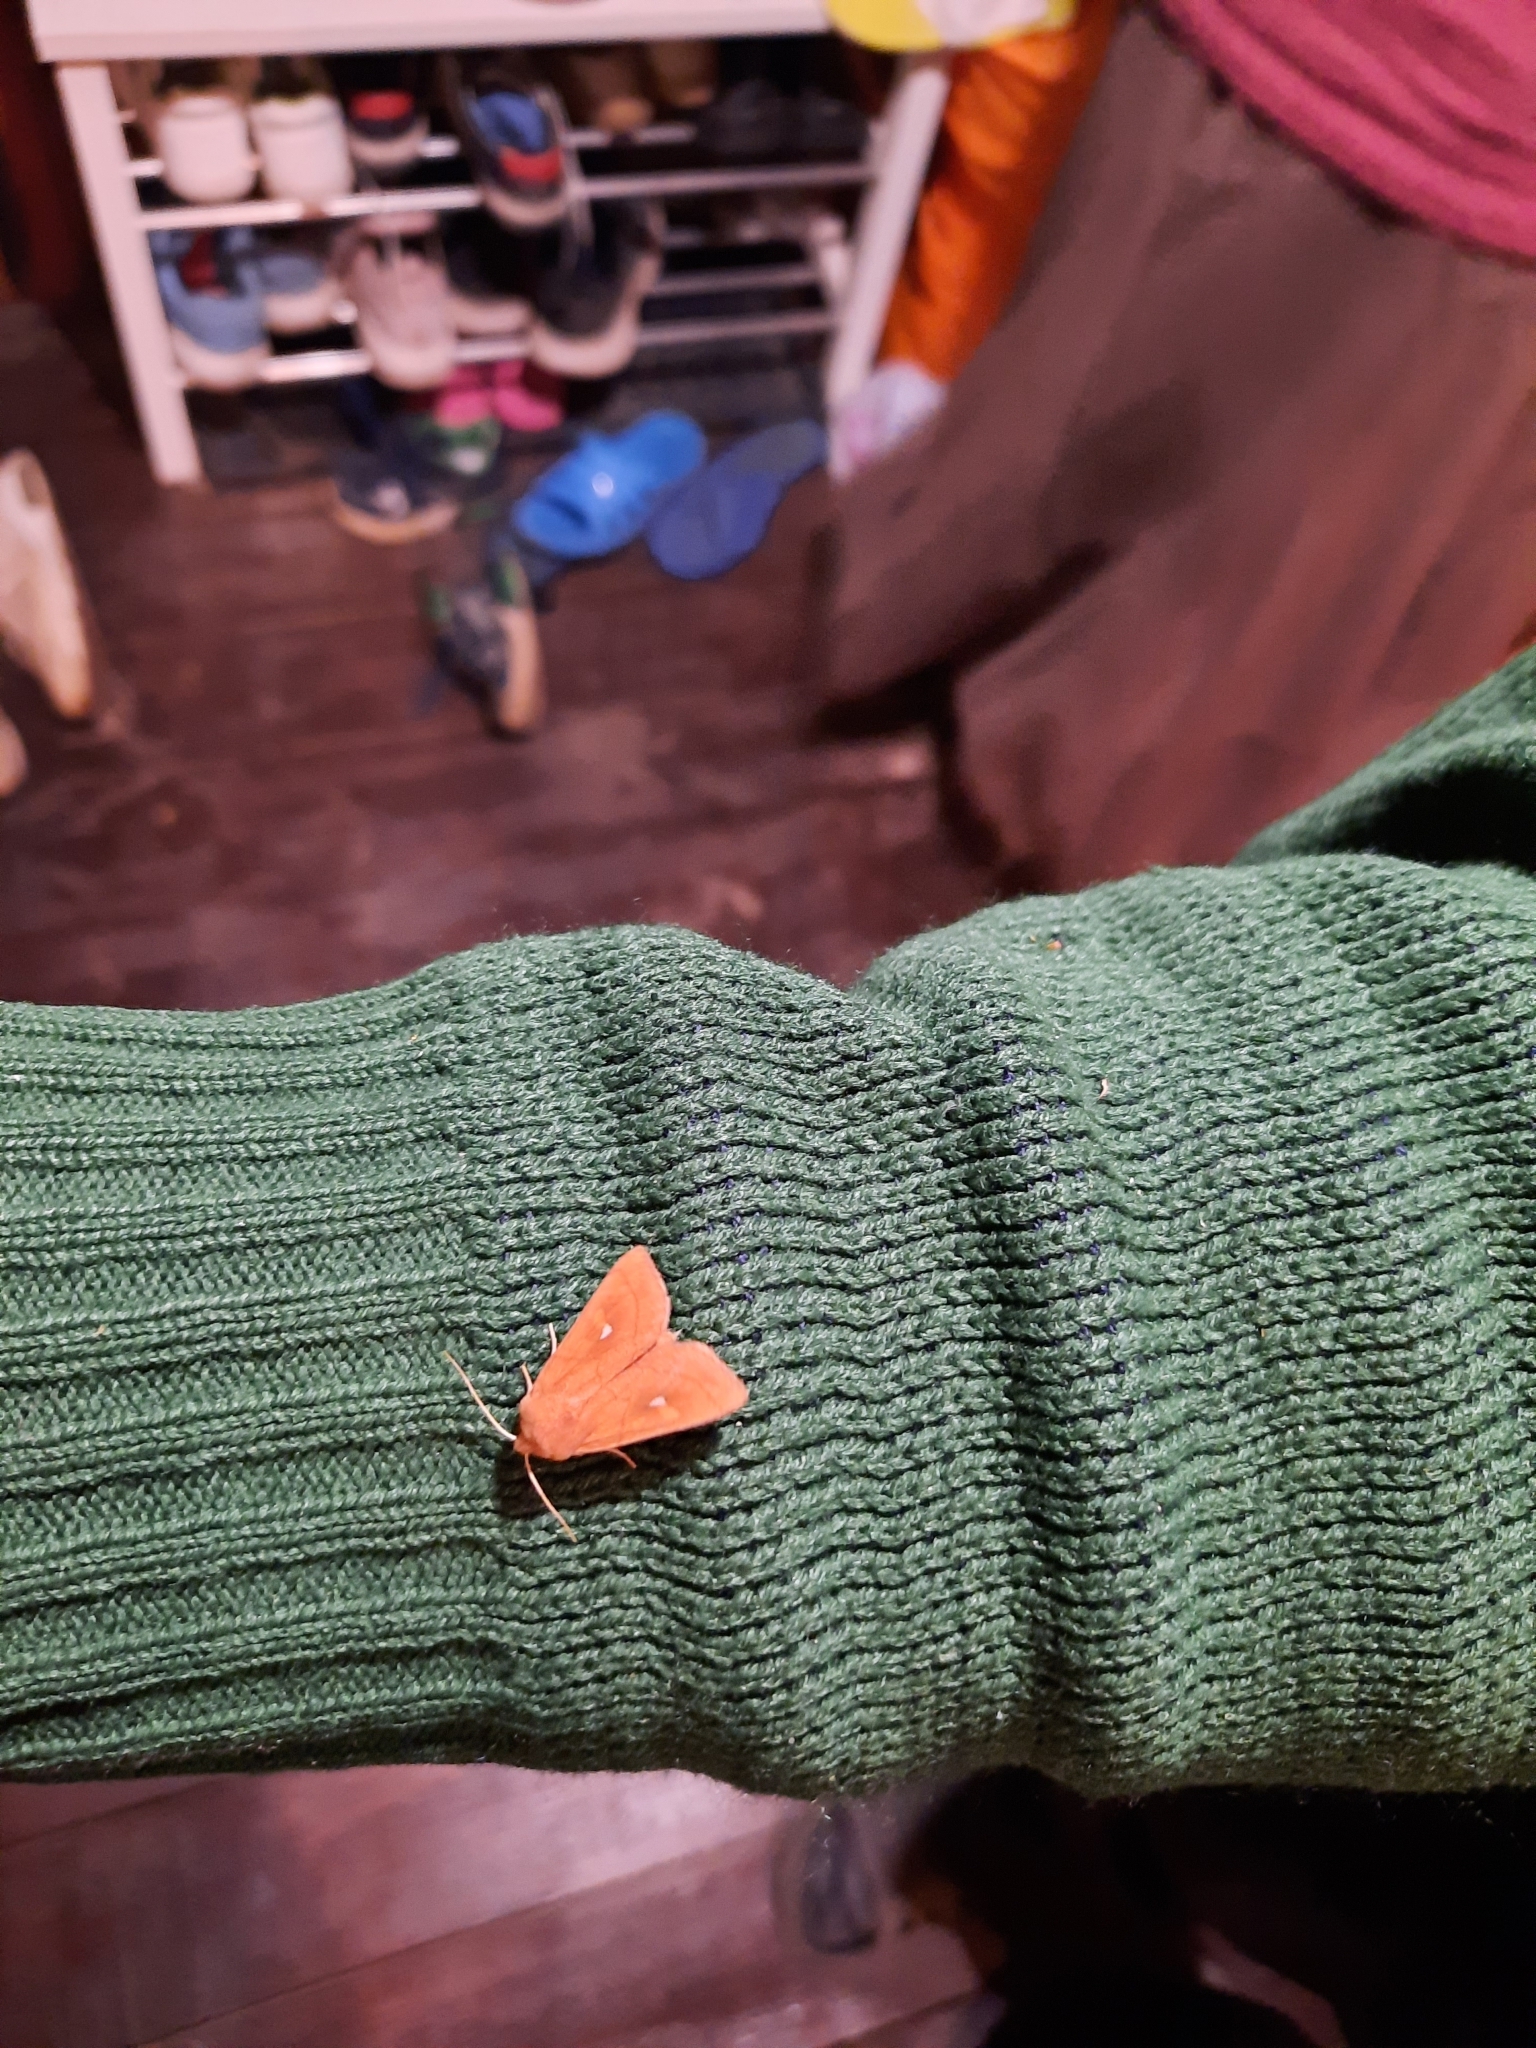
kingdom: Animalia
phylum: Arthropoda
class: Insecta
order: Lepidoptera
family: Noctuidae
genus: Mythimna
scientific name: Mythimna albipuncta
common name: White-point
